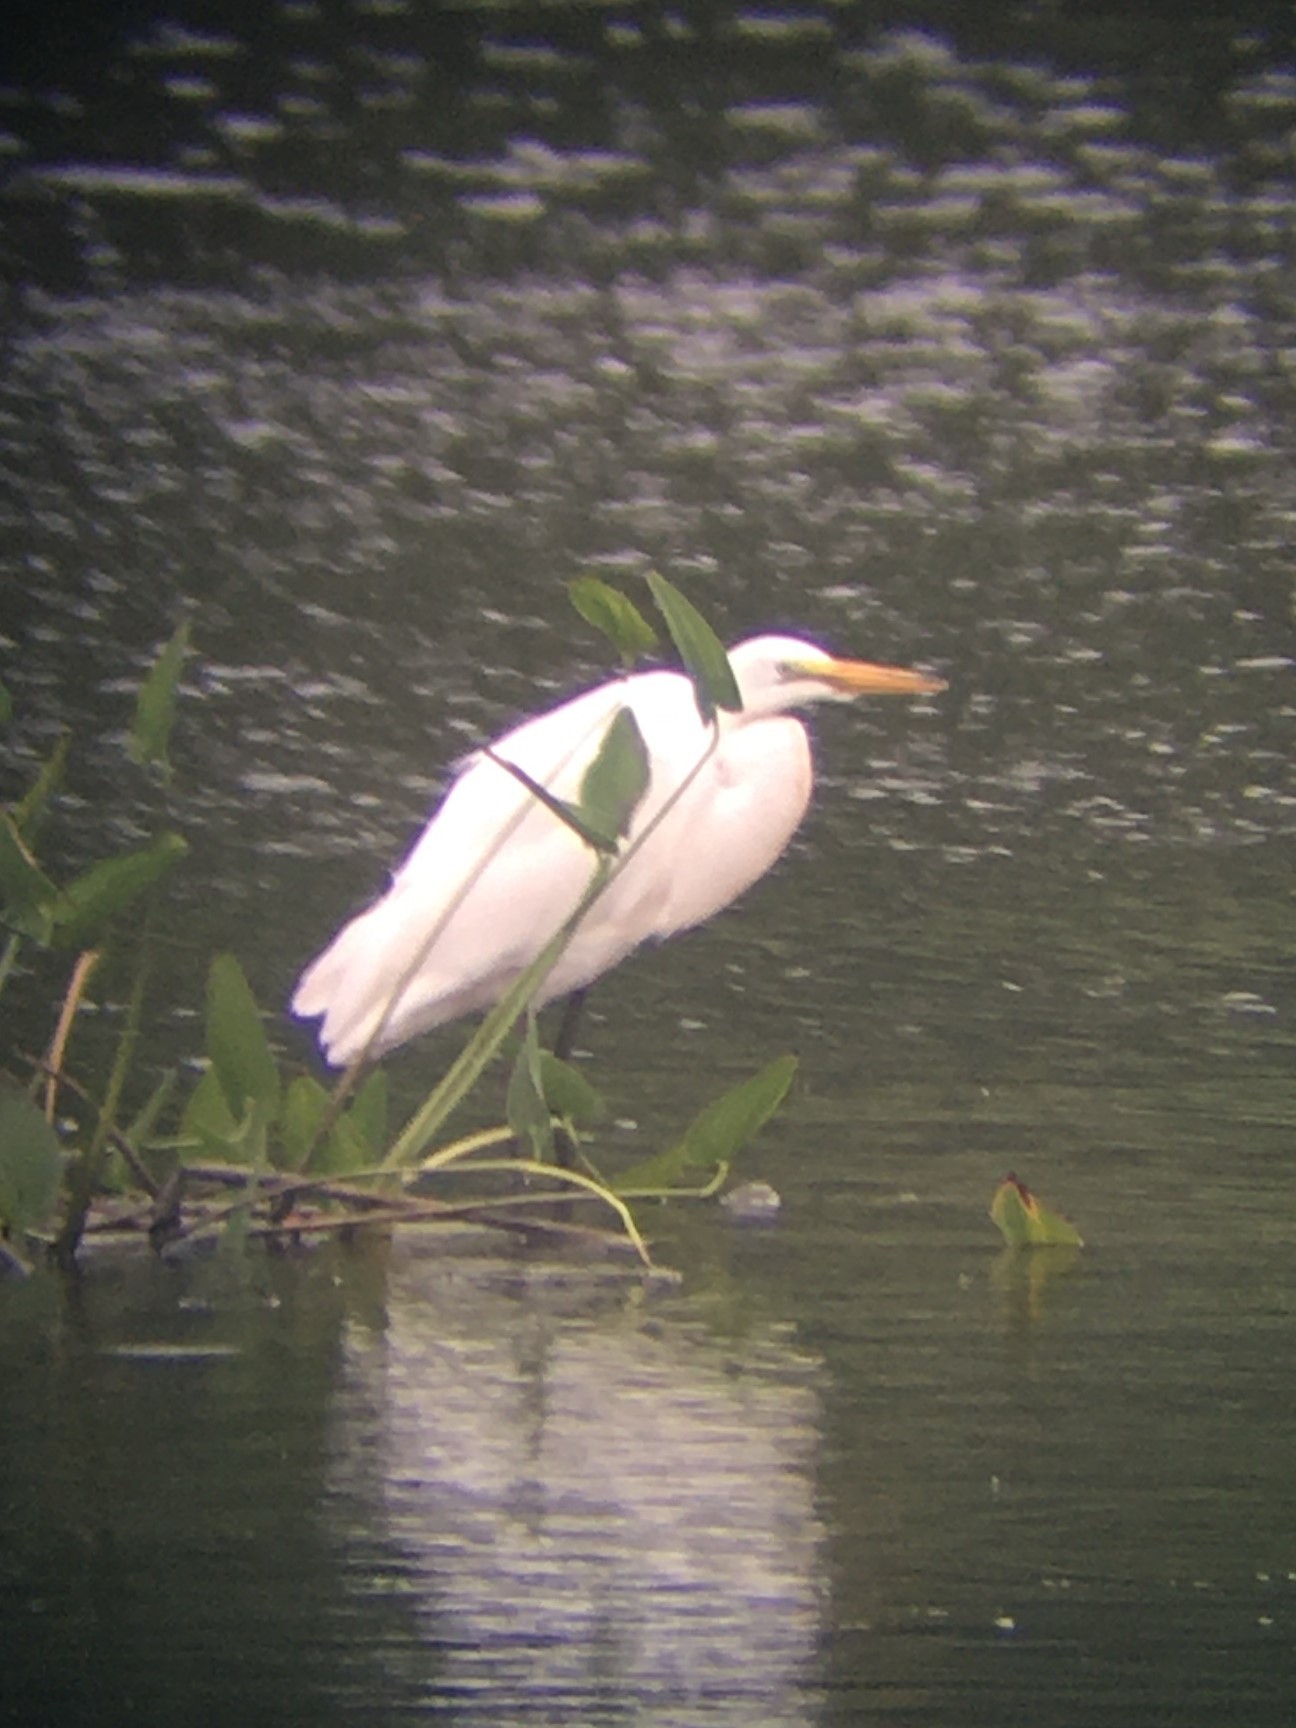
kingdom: Animalia
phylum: Chordata
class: Aves
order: Pelecaniformes
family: Ardeidae
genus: Ardea
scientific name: Ardea alba
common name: Great egret
